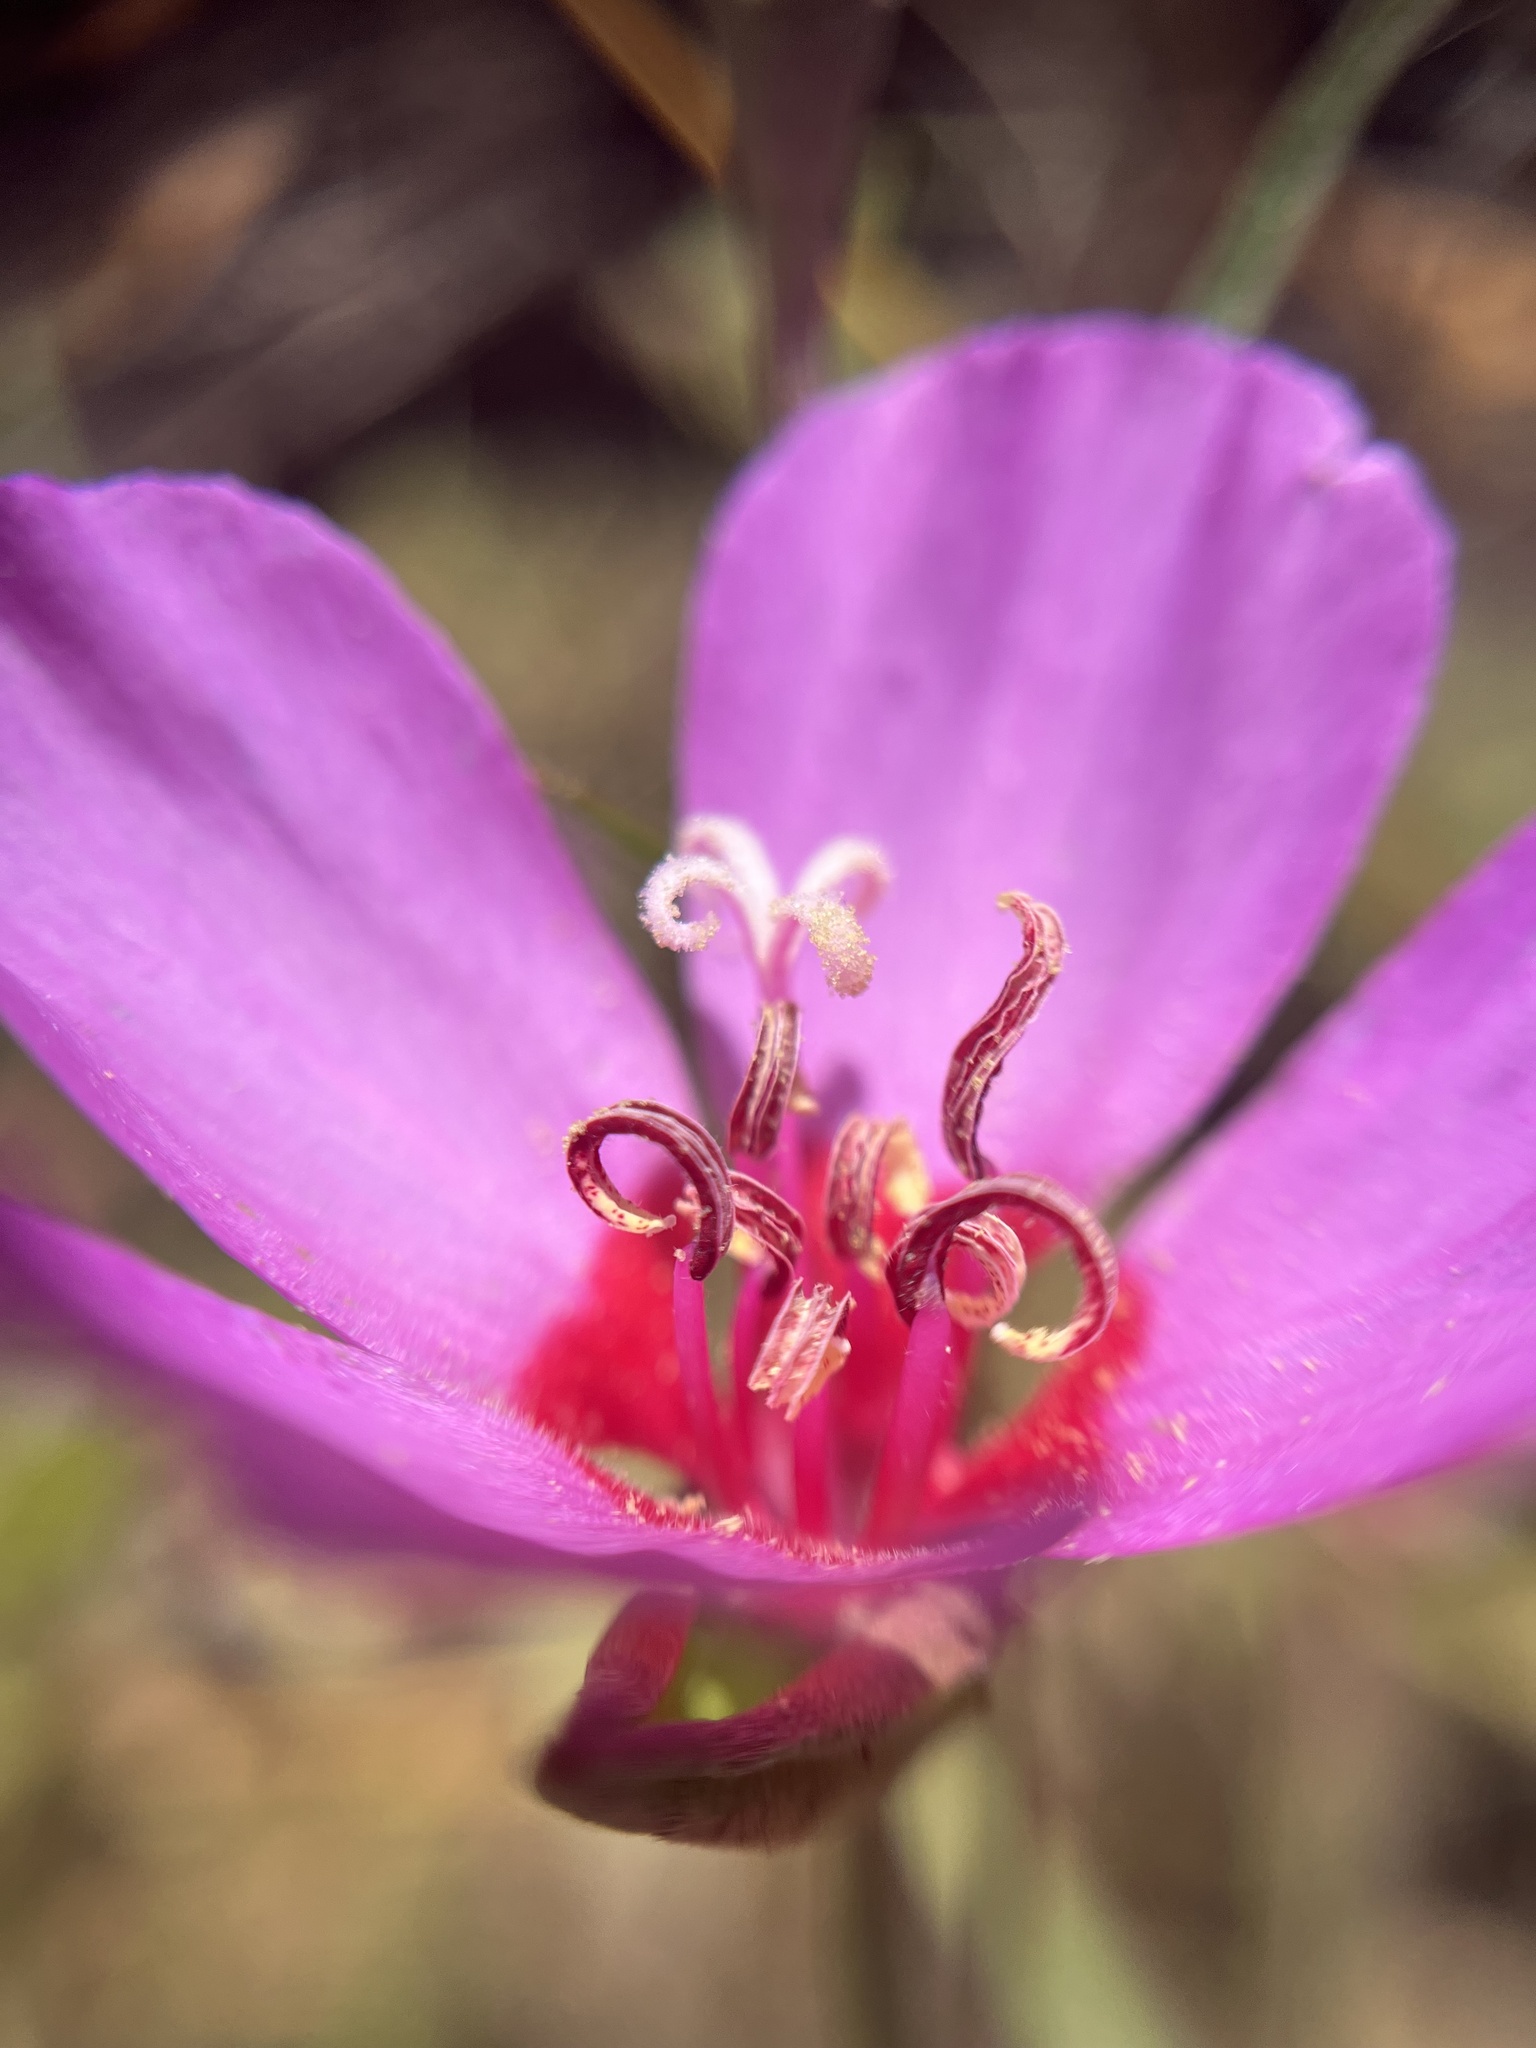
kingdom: Plantae
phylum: Tracheophyta
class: Magnoliopsida
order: Myrtales
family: Onagraceae
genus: Clarkia
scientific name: Clarkia rubicunda
